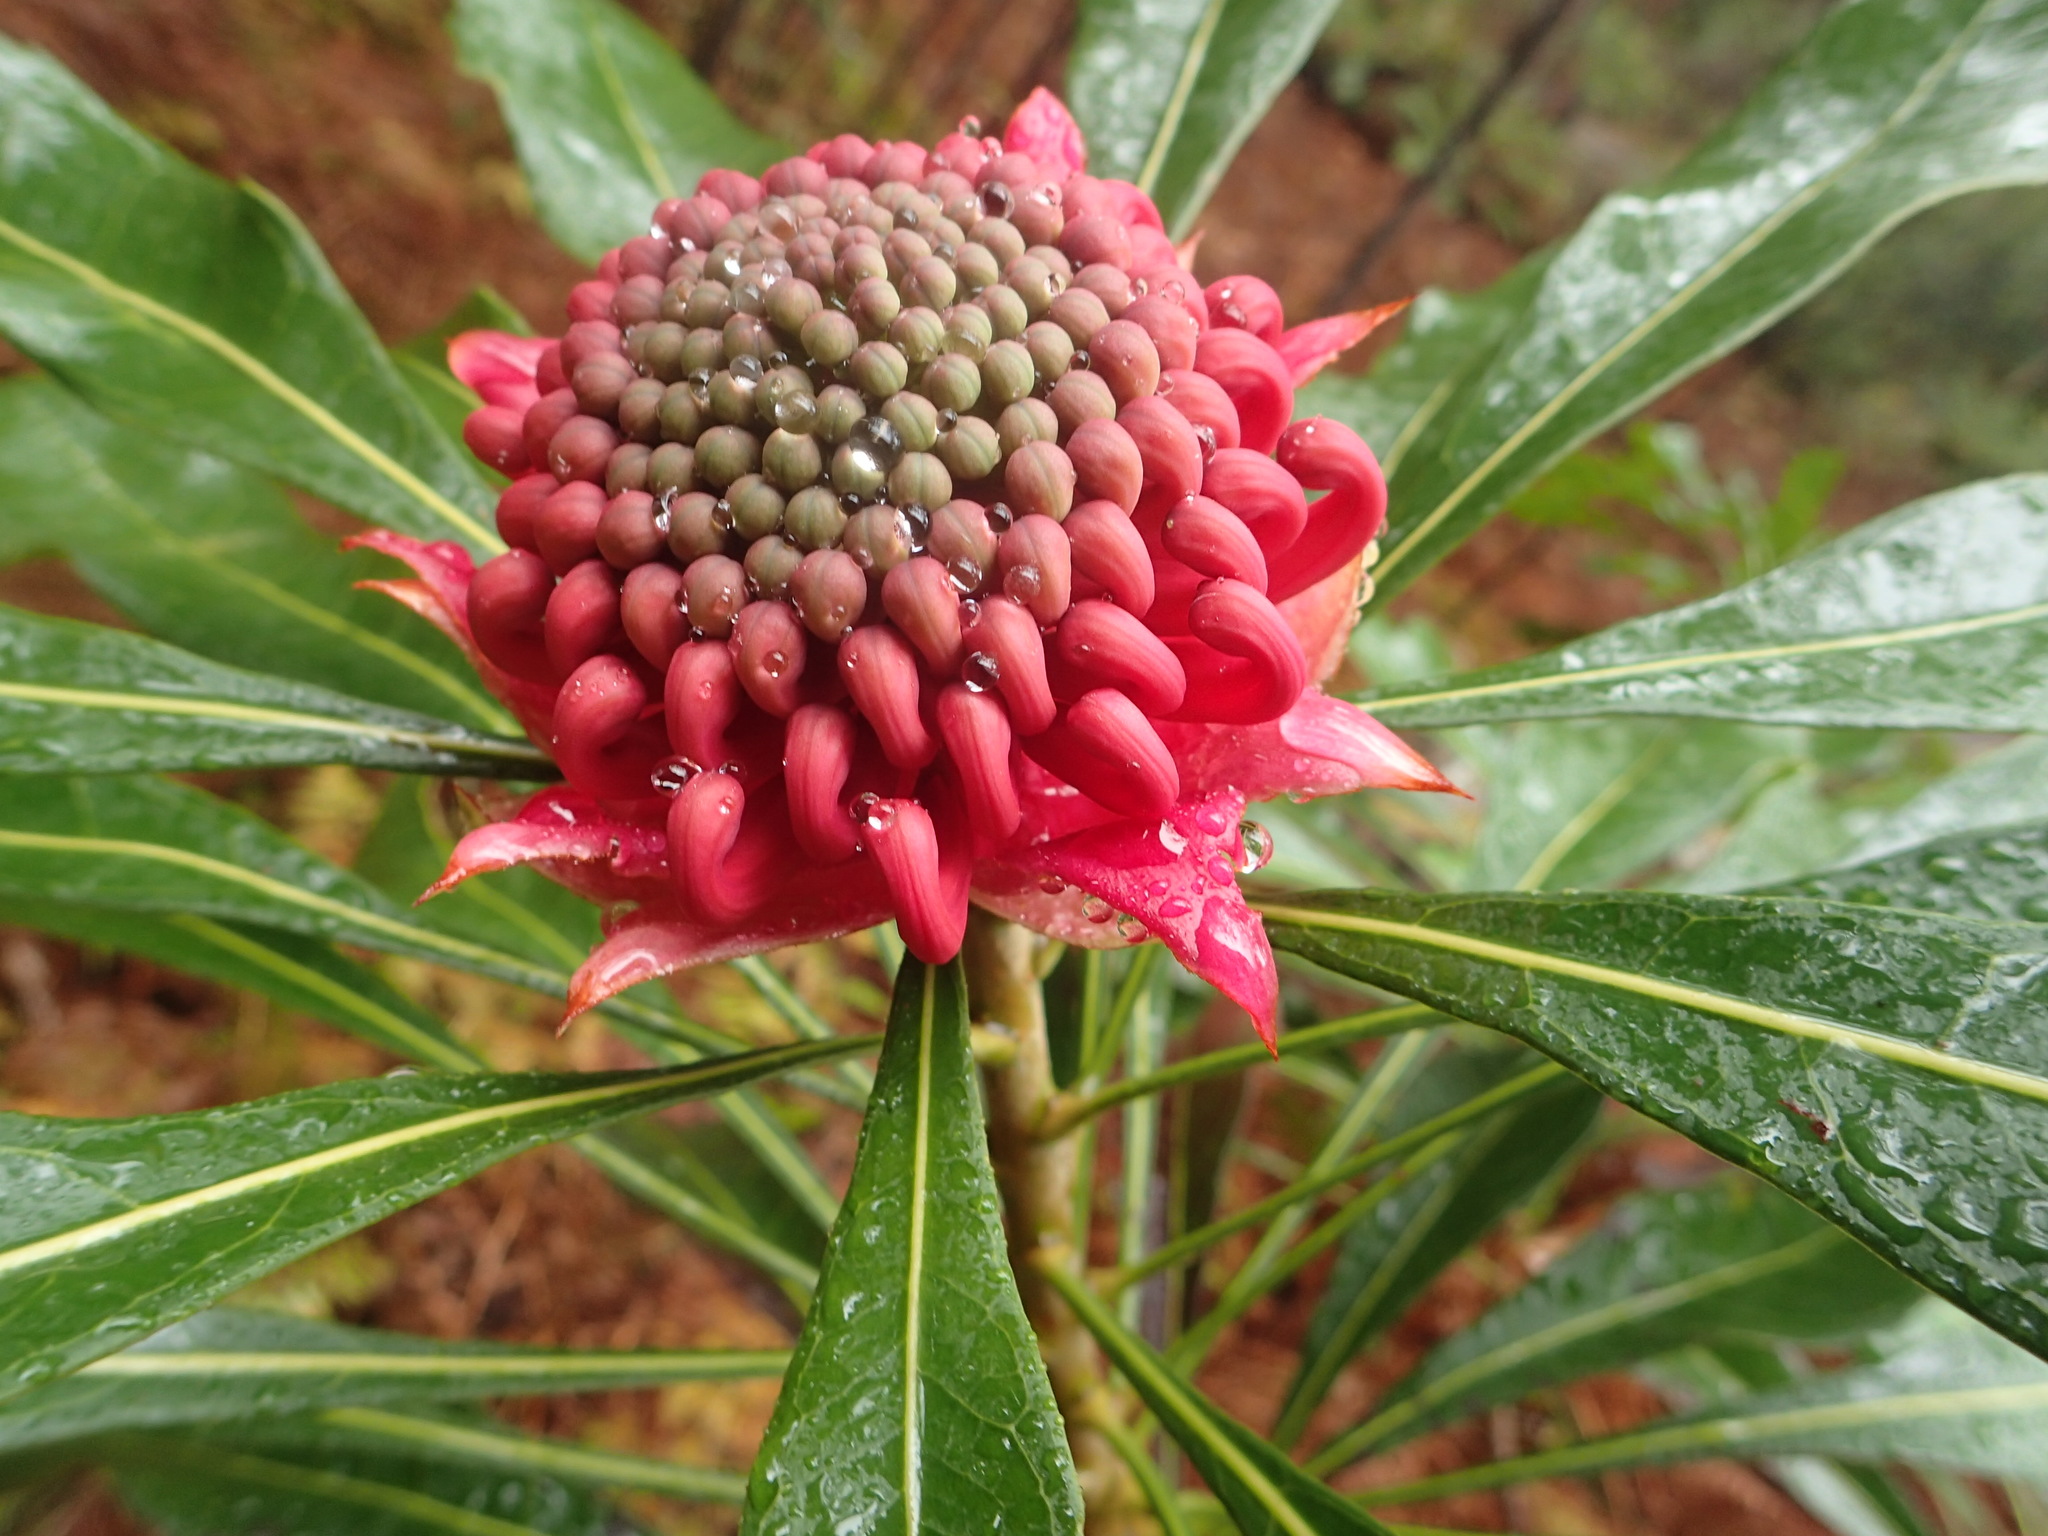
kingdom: Plantae
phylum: Tracheophyta
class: Magnoliopsida
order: Proteales
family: Proteaceae
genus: Telopea
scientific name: Telopea speciosissima
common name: New south wales waratah
